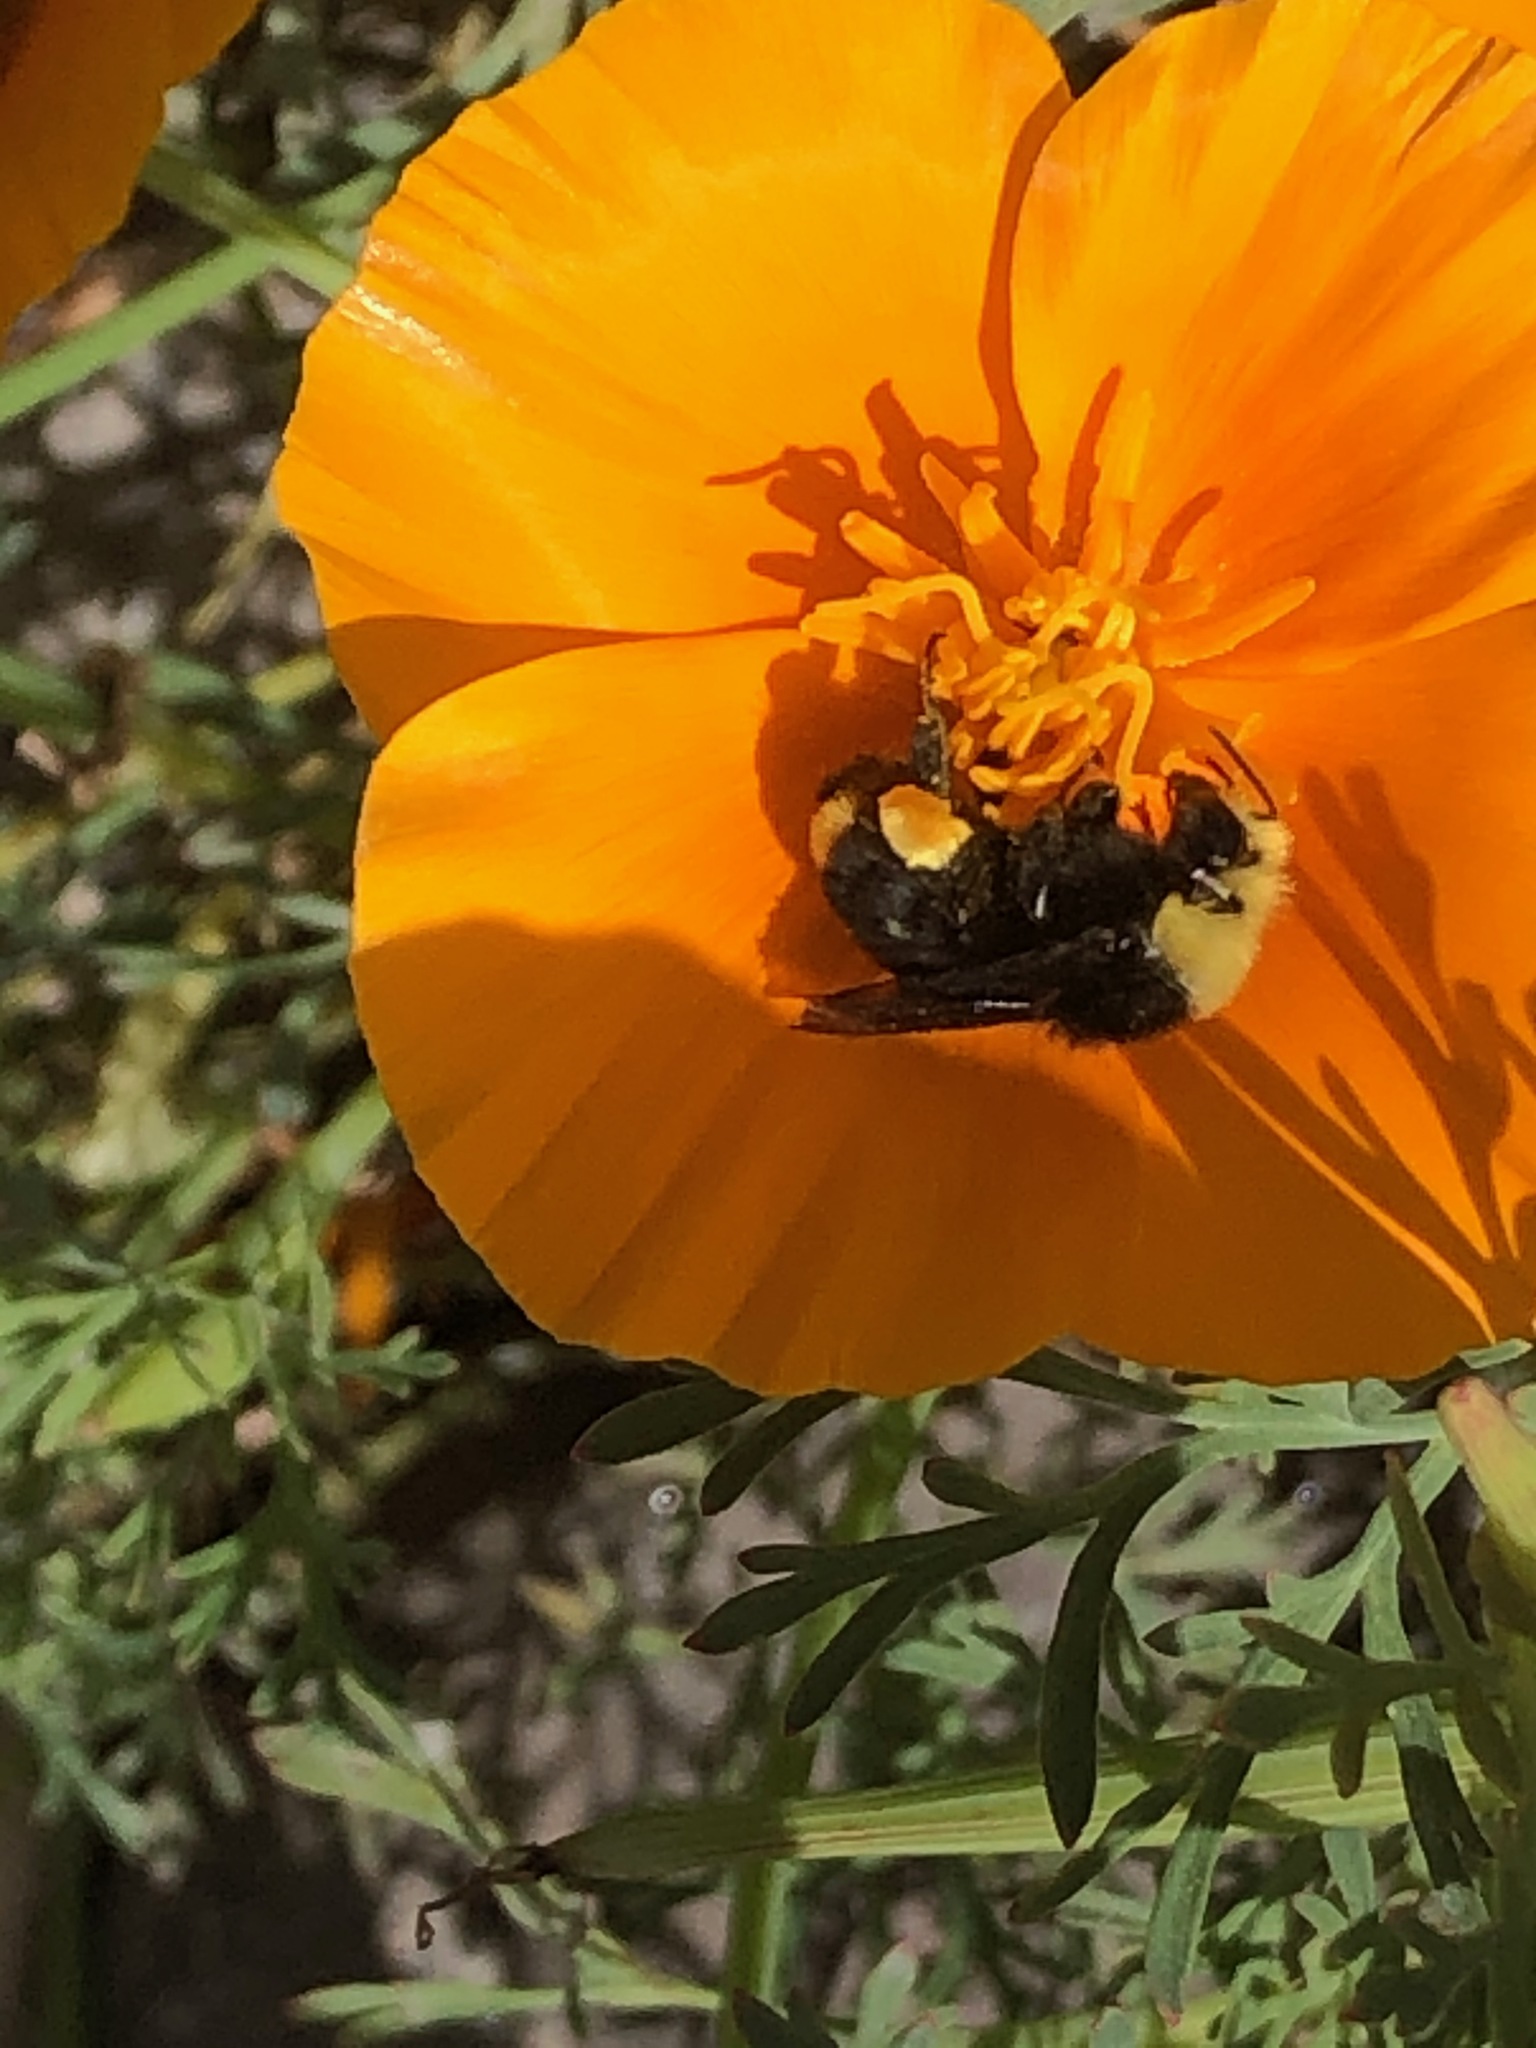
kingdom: Animalia
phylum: Arthropoda
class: Insecta
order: Hymenoptera
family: Apidae
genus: Bombus
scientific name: Bombus vosnesenskii
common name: Vosnesensky bumble bee
